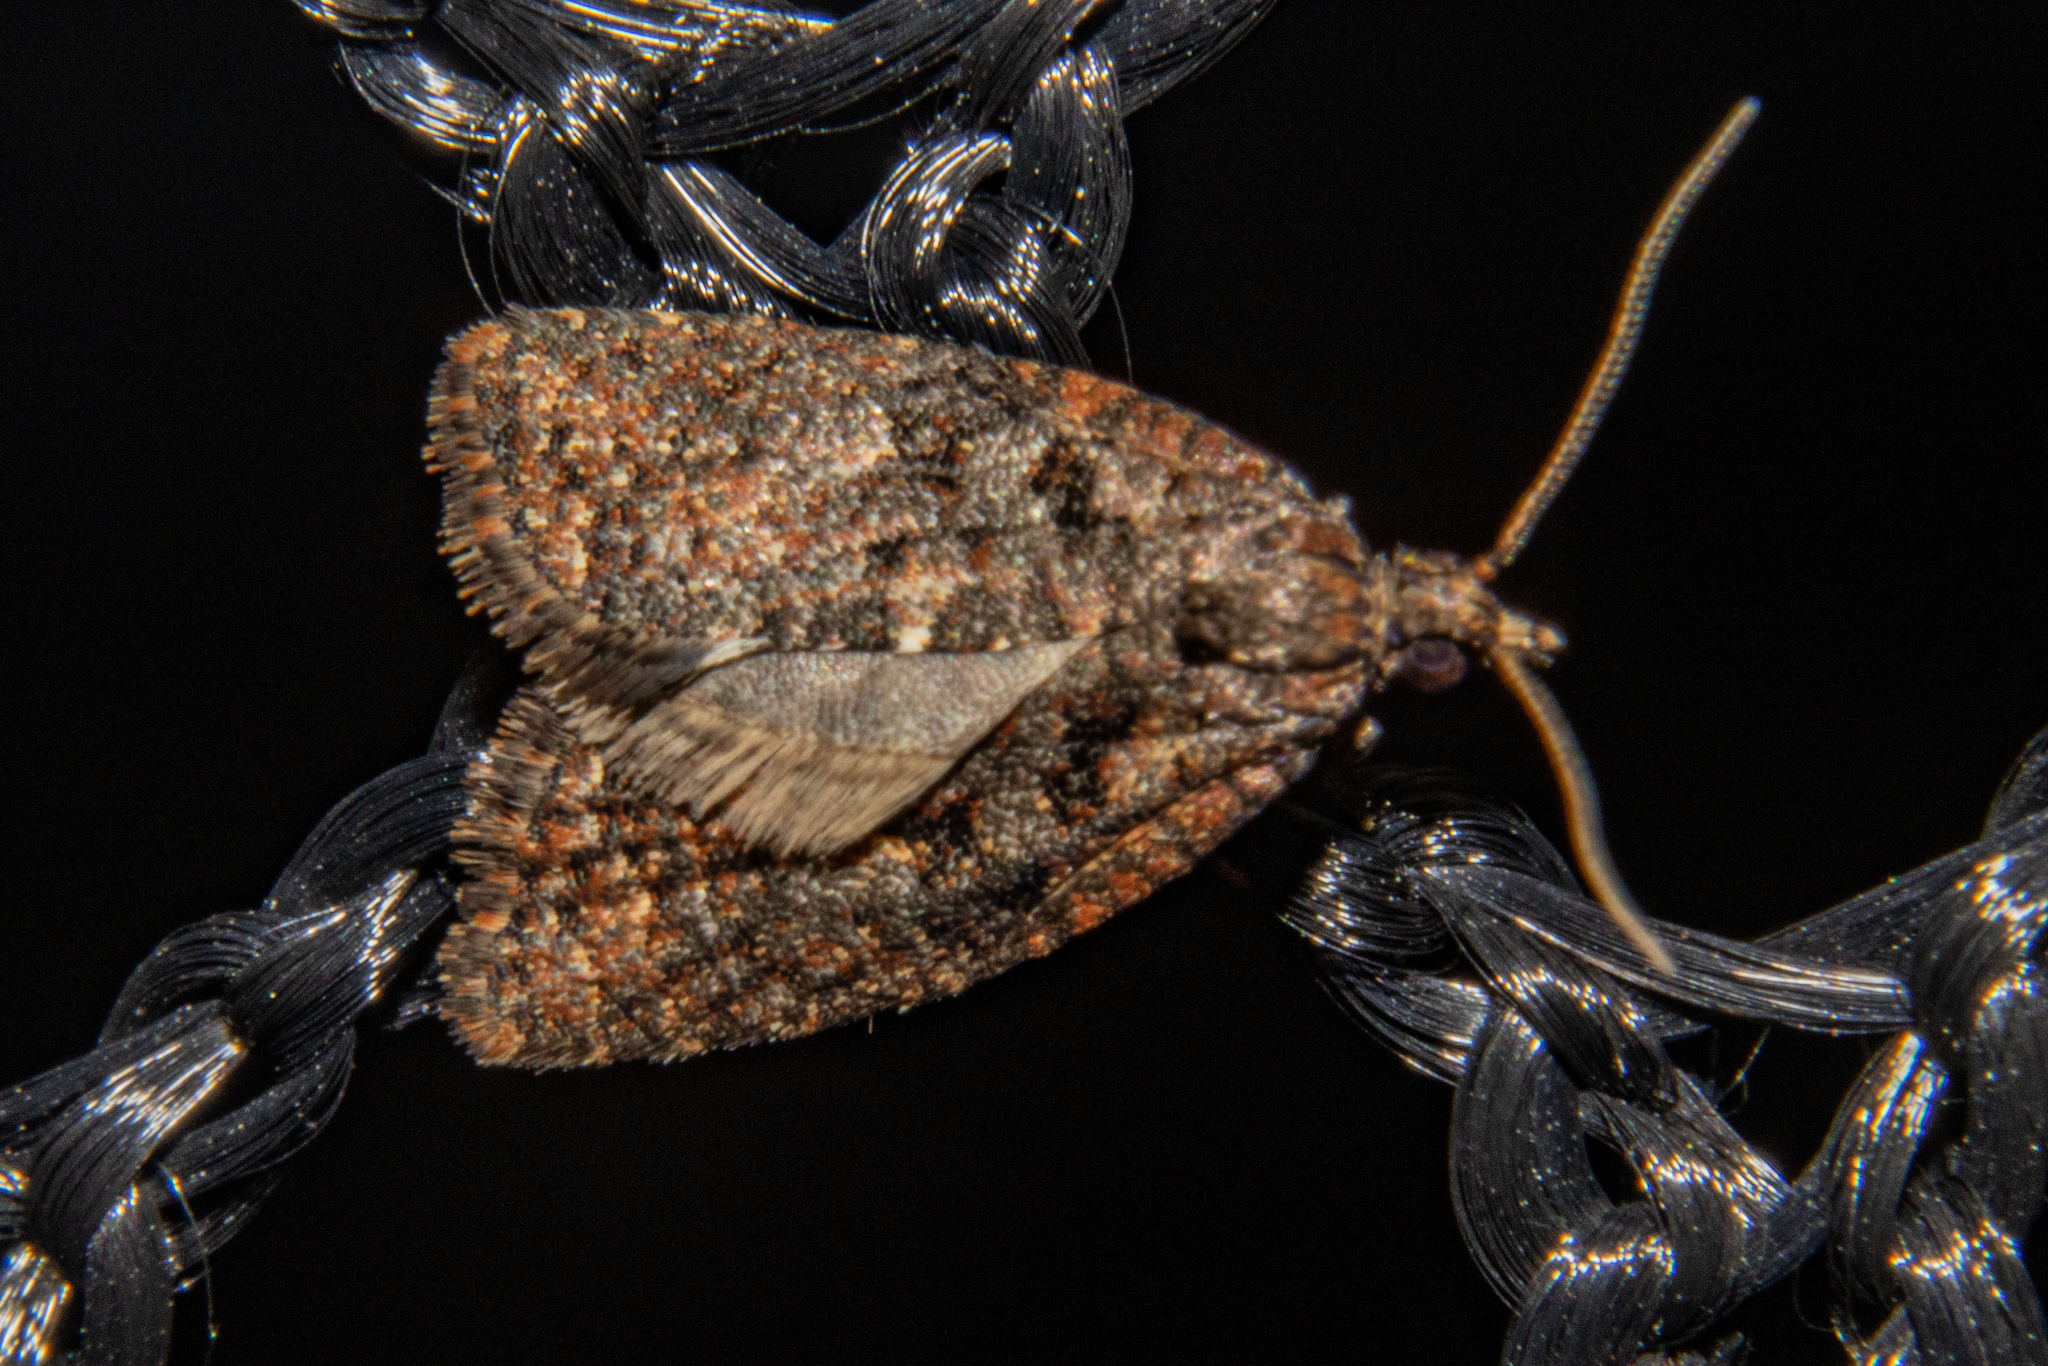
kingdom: Animalia
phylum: Arthropoda
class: Insecta
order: Lepidoptera
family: Tortricidae
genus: Capua
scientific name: Capua intractana
